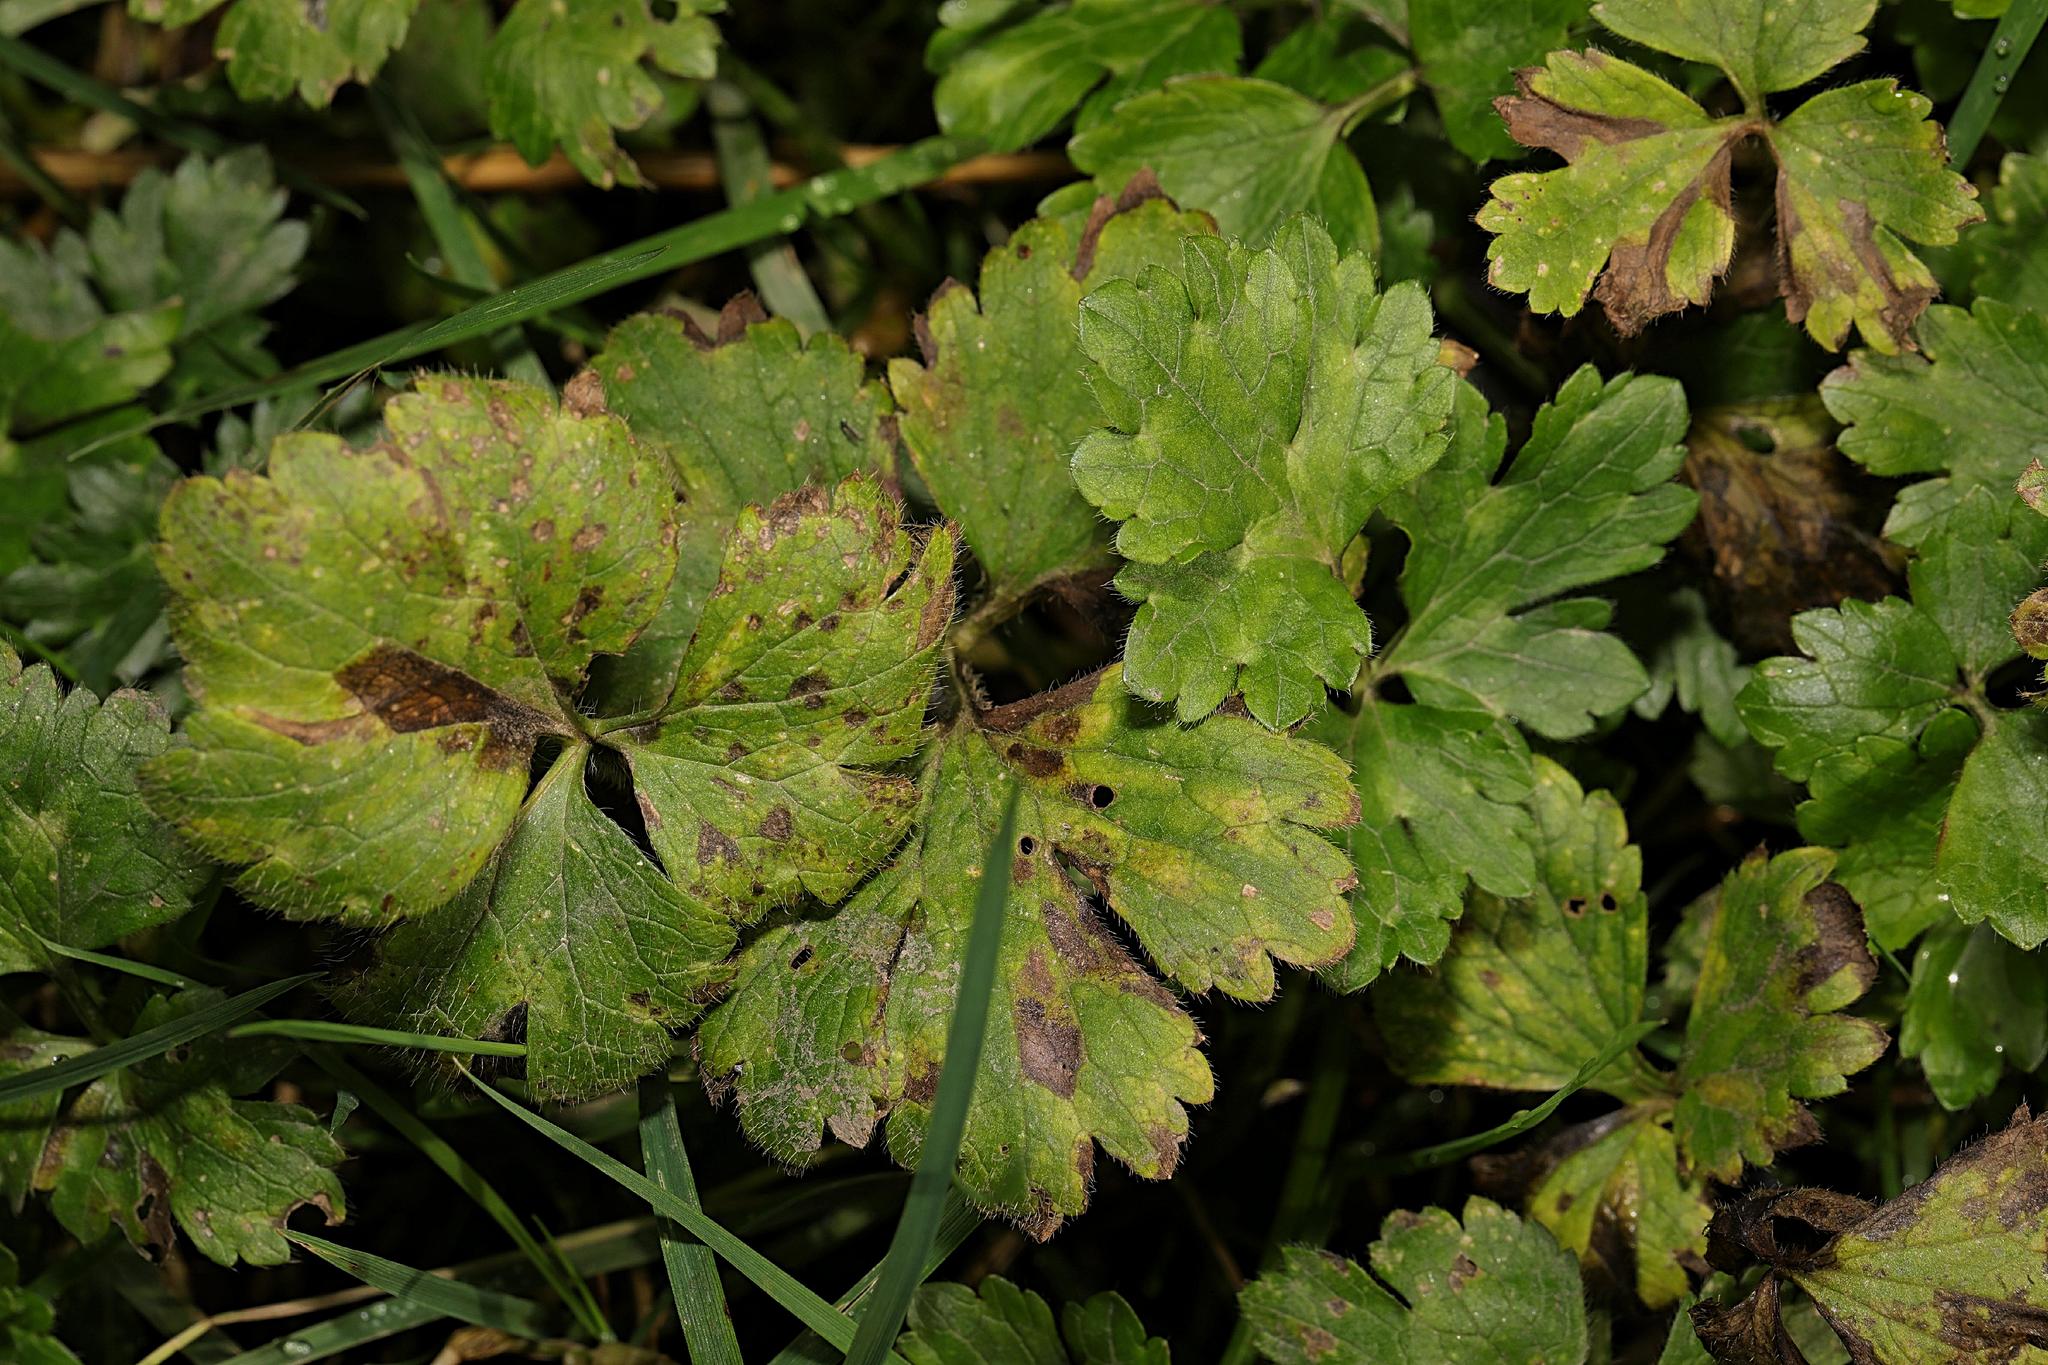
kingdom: Plantae
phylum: Tracheophyta
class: Magnoliopsida
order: Ranunculales
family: Ranunculaceae
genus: Ranunculus
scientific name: Ranunculus repens
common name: Creeping buttercup
